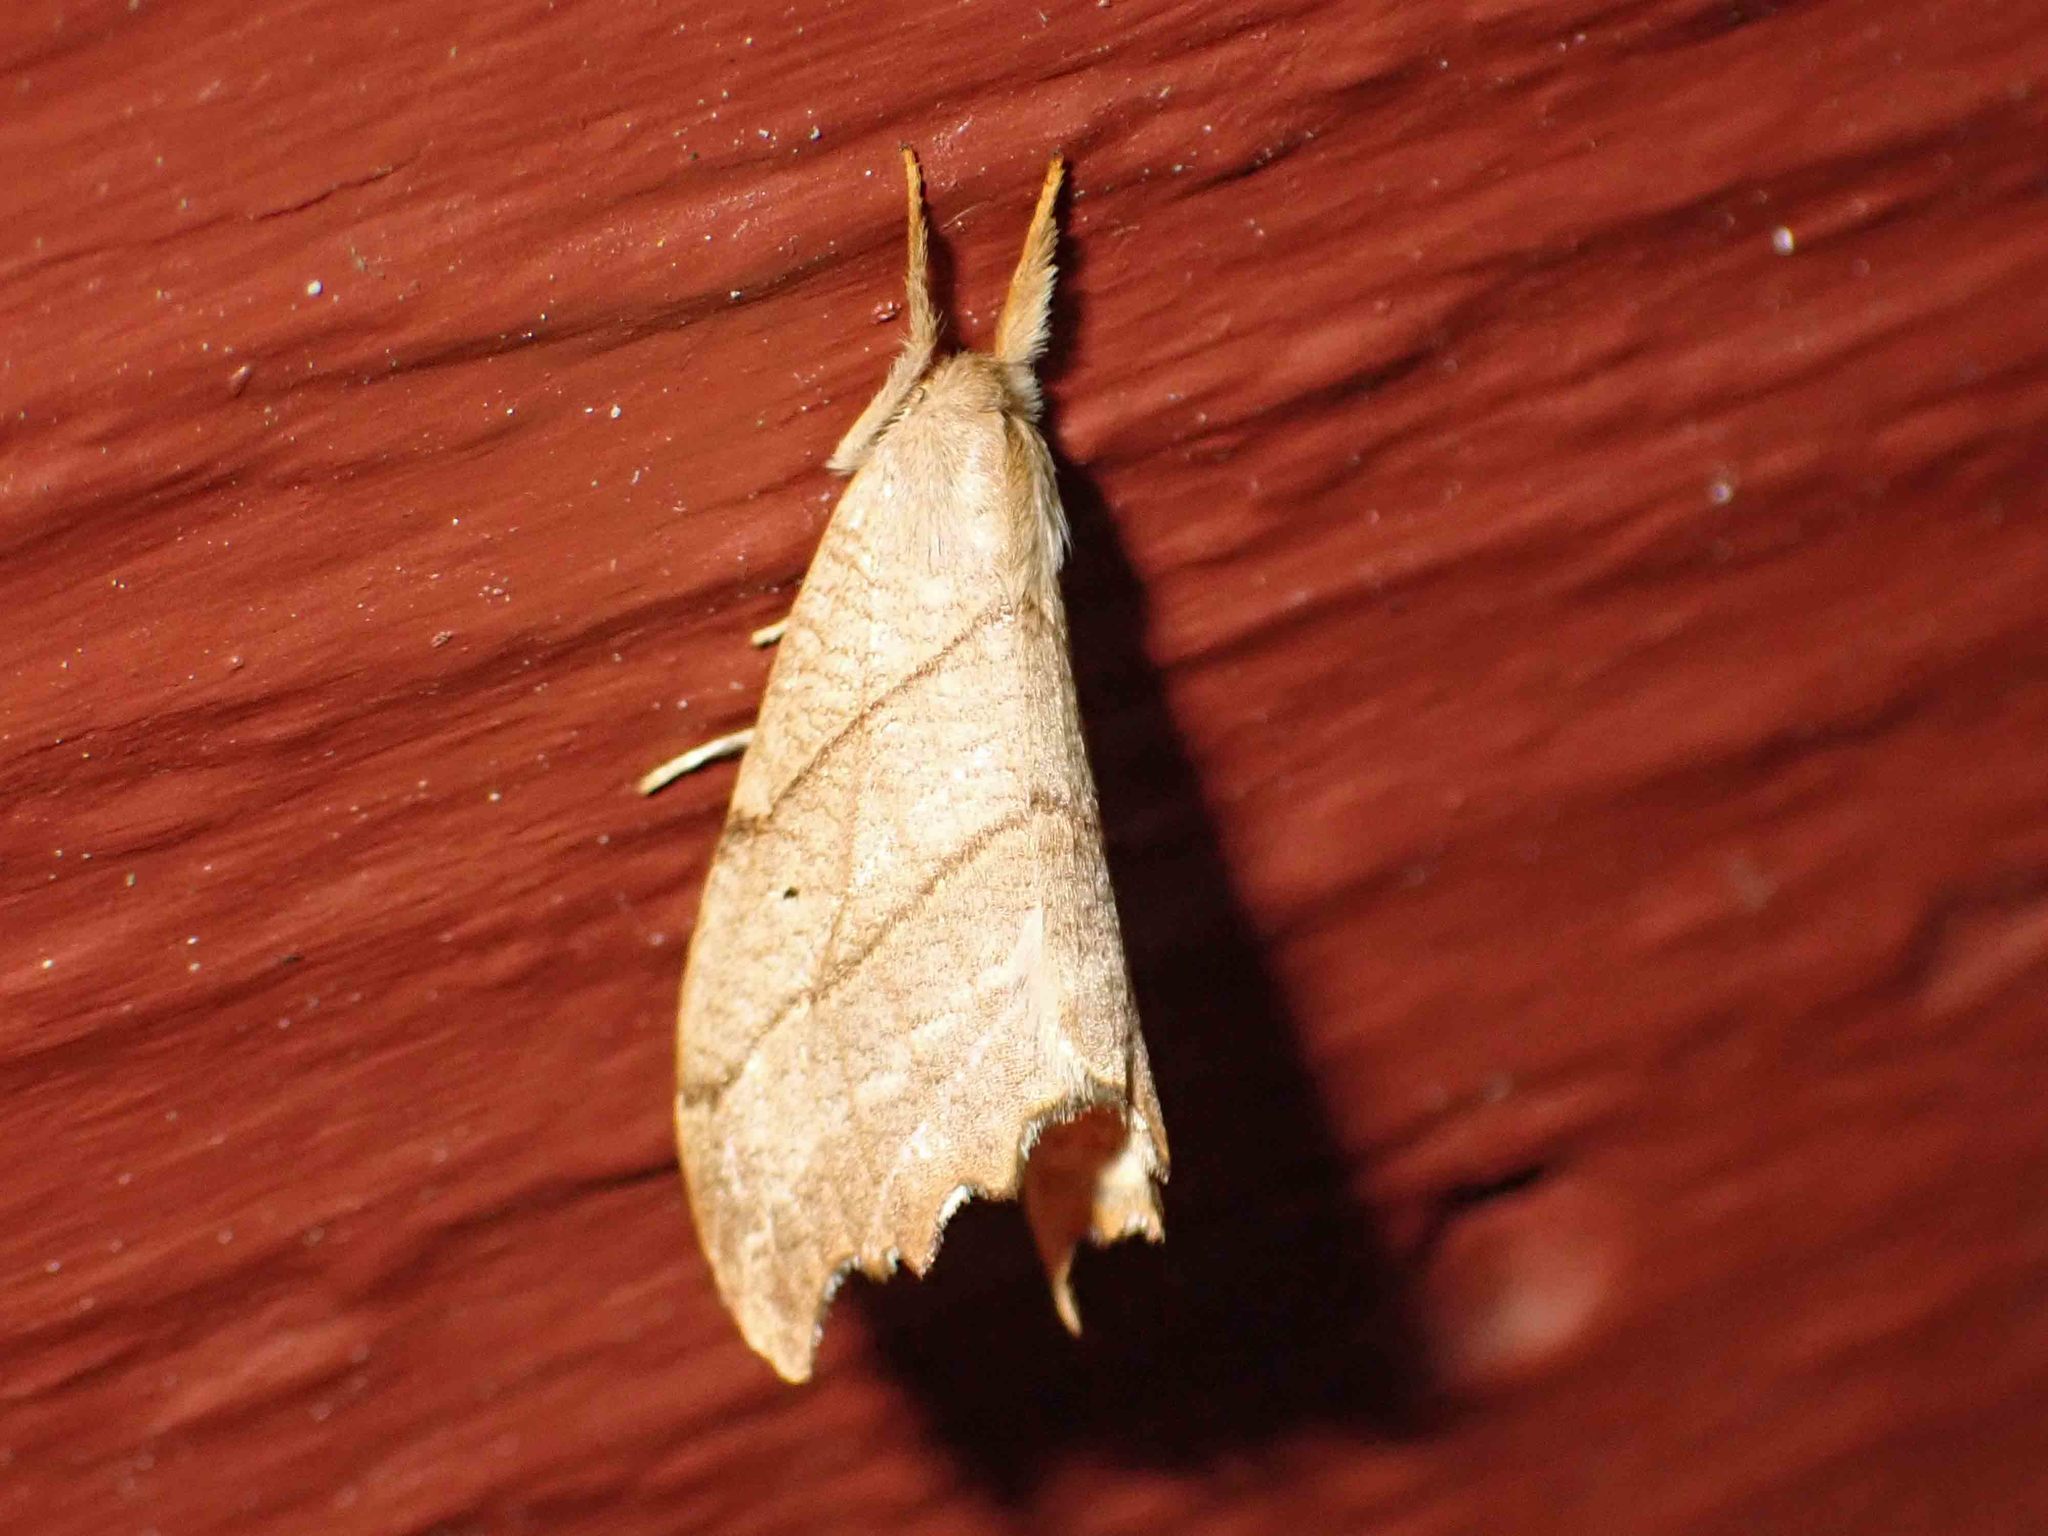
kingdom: Animalia
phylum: Arthropoda
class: Insecta
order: Lepidoptera
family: Drepanidae
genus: Falcaria
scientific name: Falcaria bilineata
